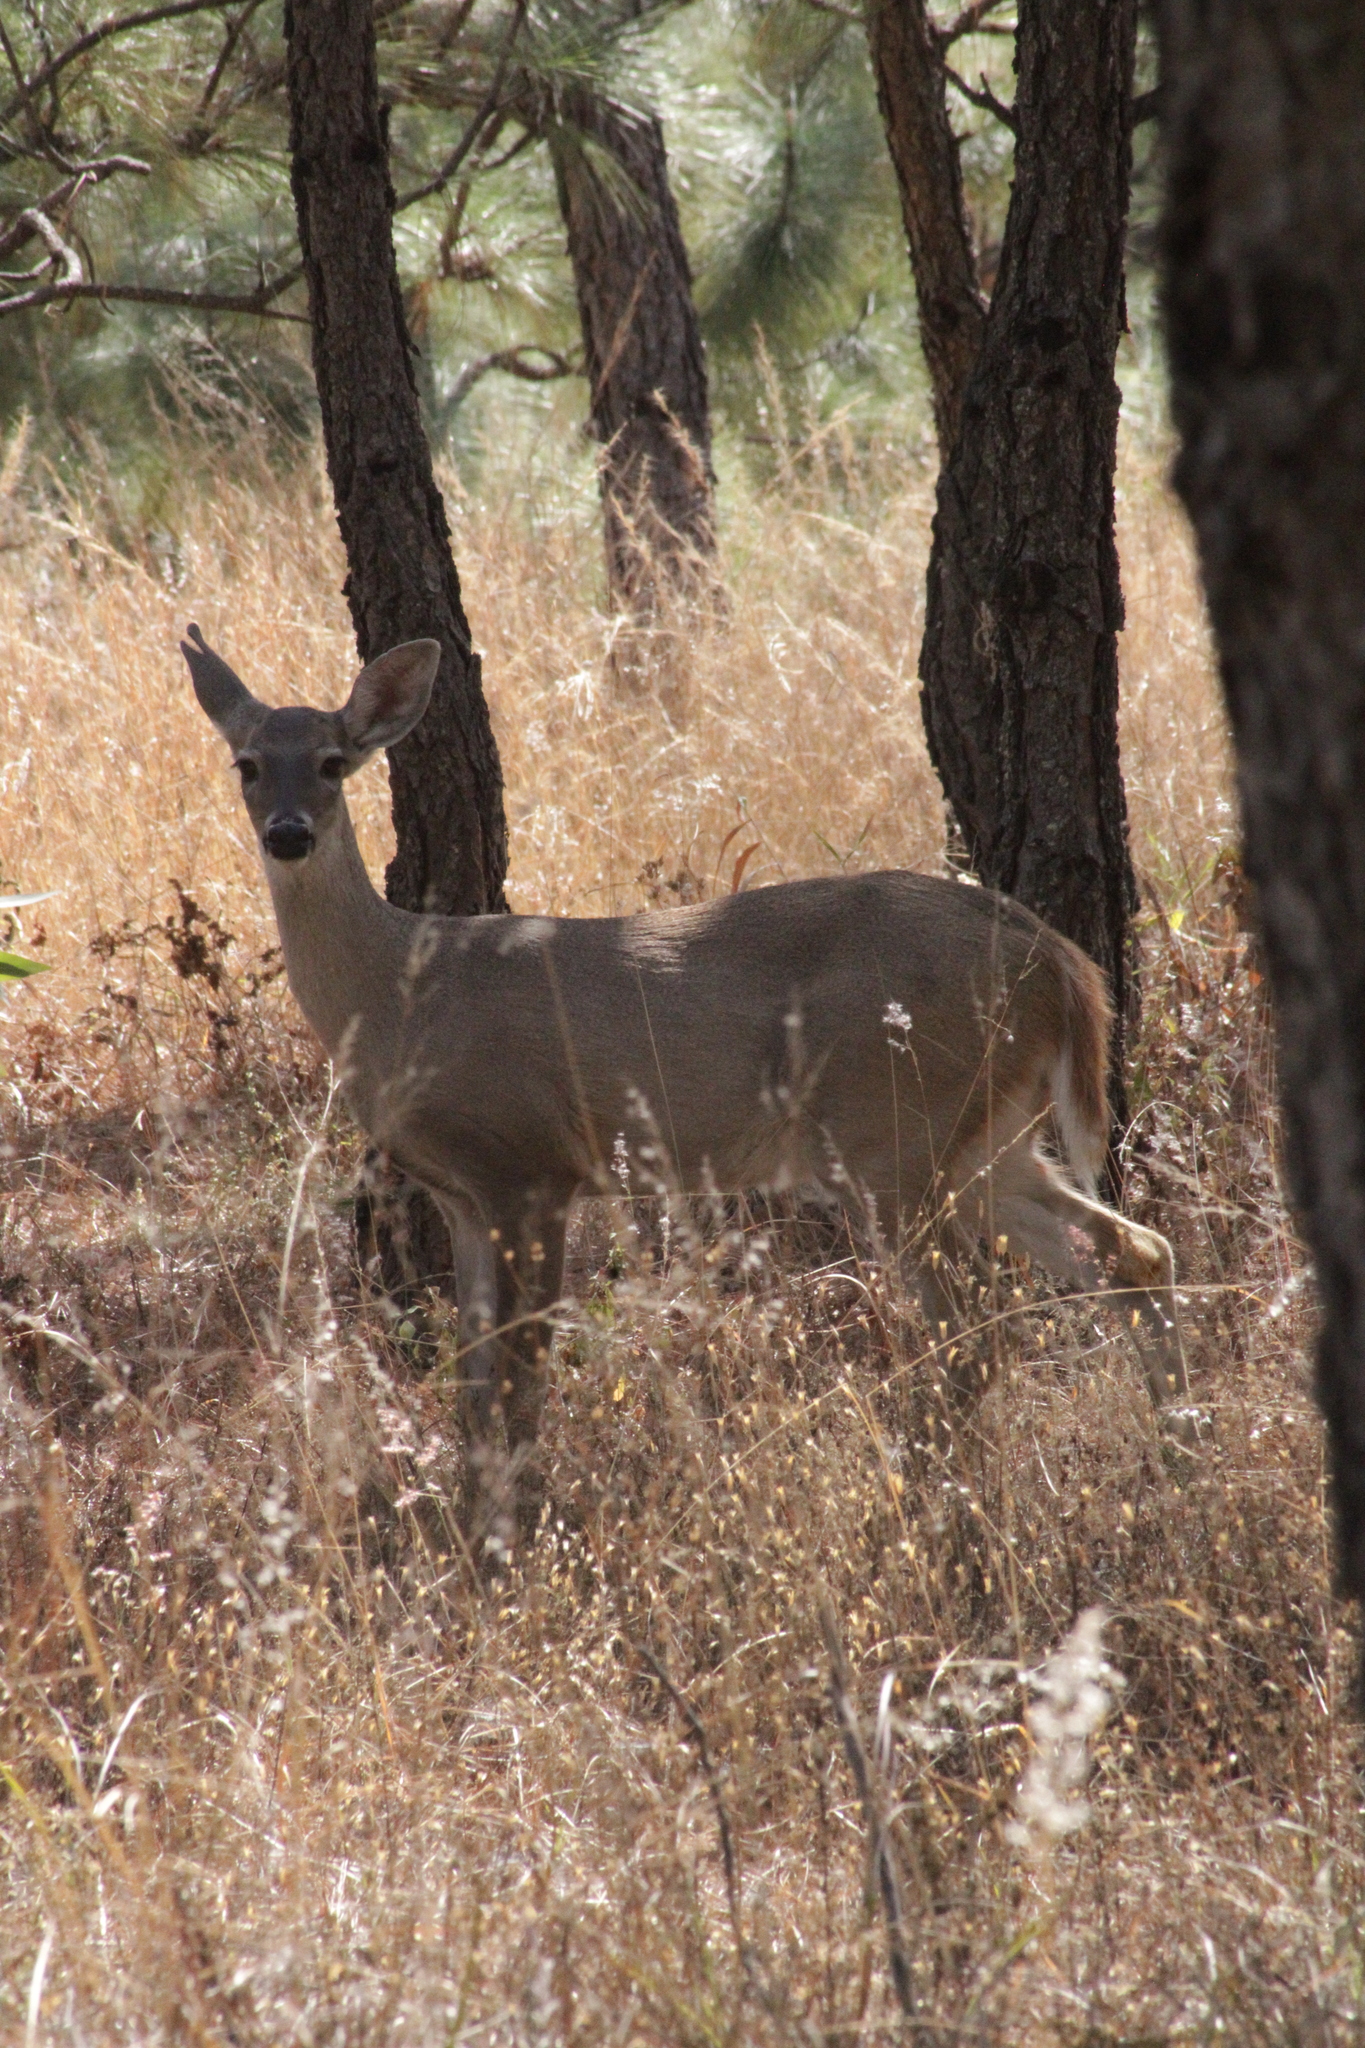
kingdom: Animalia
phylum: Chordata
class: Mammalia
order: Artiodactyla
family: Cervidae
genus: Odocoileus
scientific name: Odocoileus virginianus
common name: White-tailed deer
